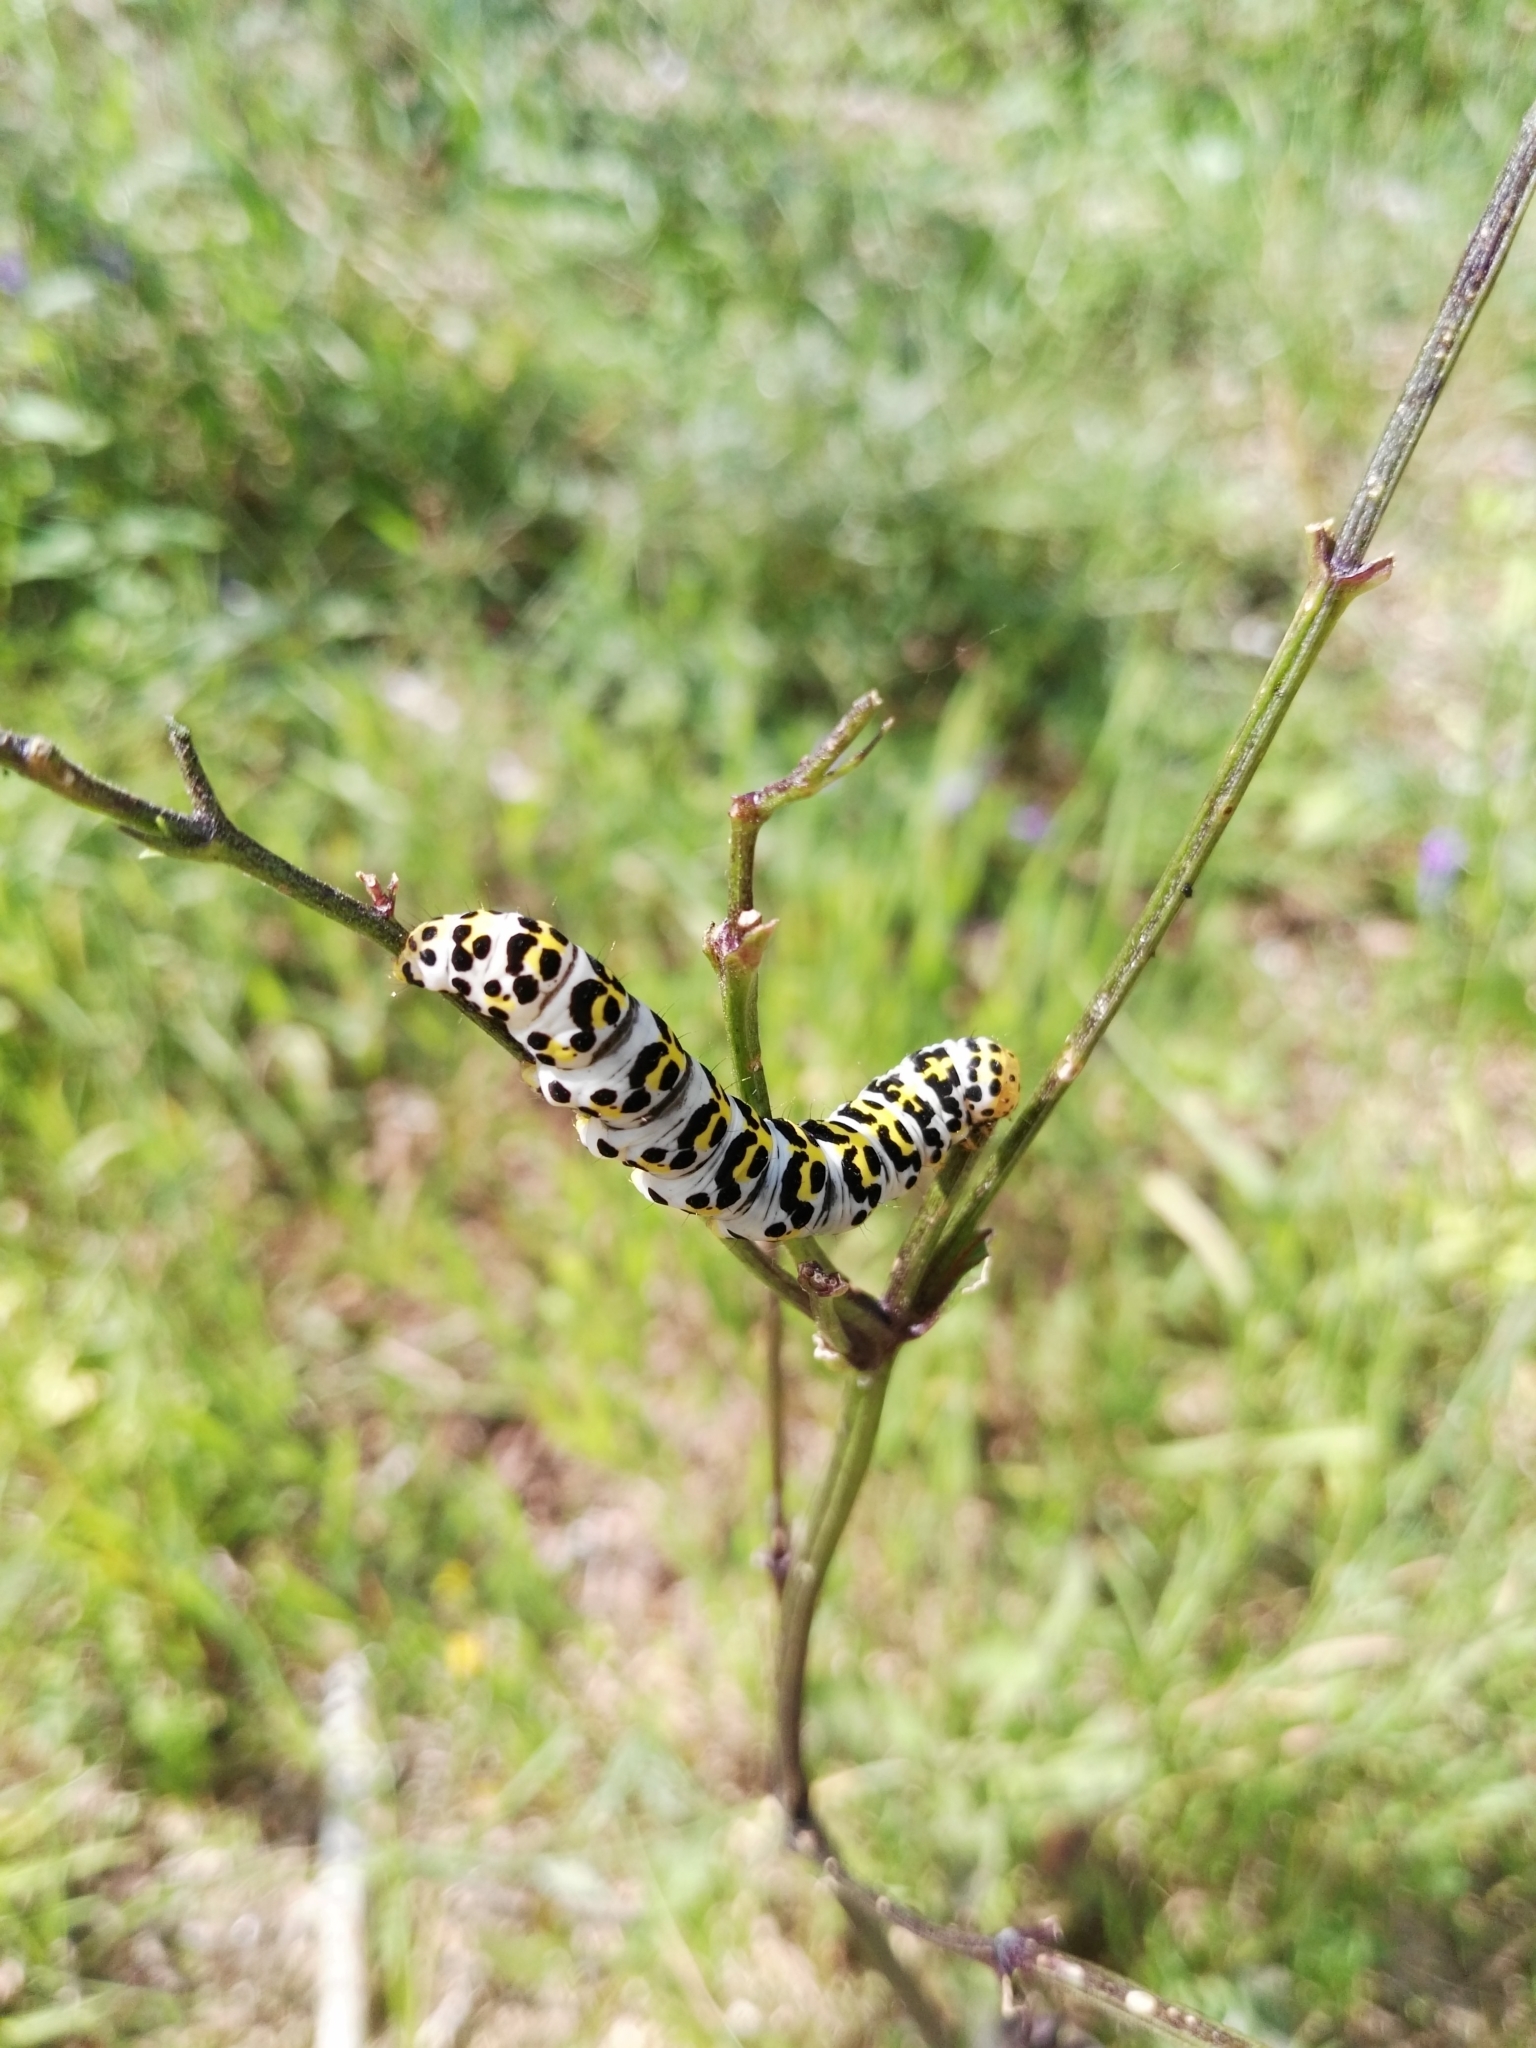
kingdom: Animalia
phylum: Arthropoda
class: Insecta
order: Lepidoptera
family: Noctuidae
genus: Cucullia
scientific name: Cucullia verbasci
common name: Mullein
